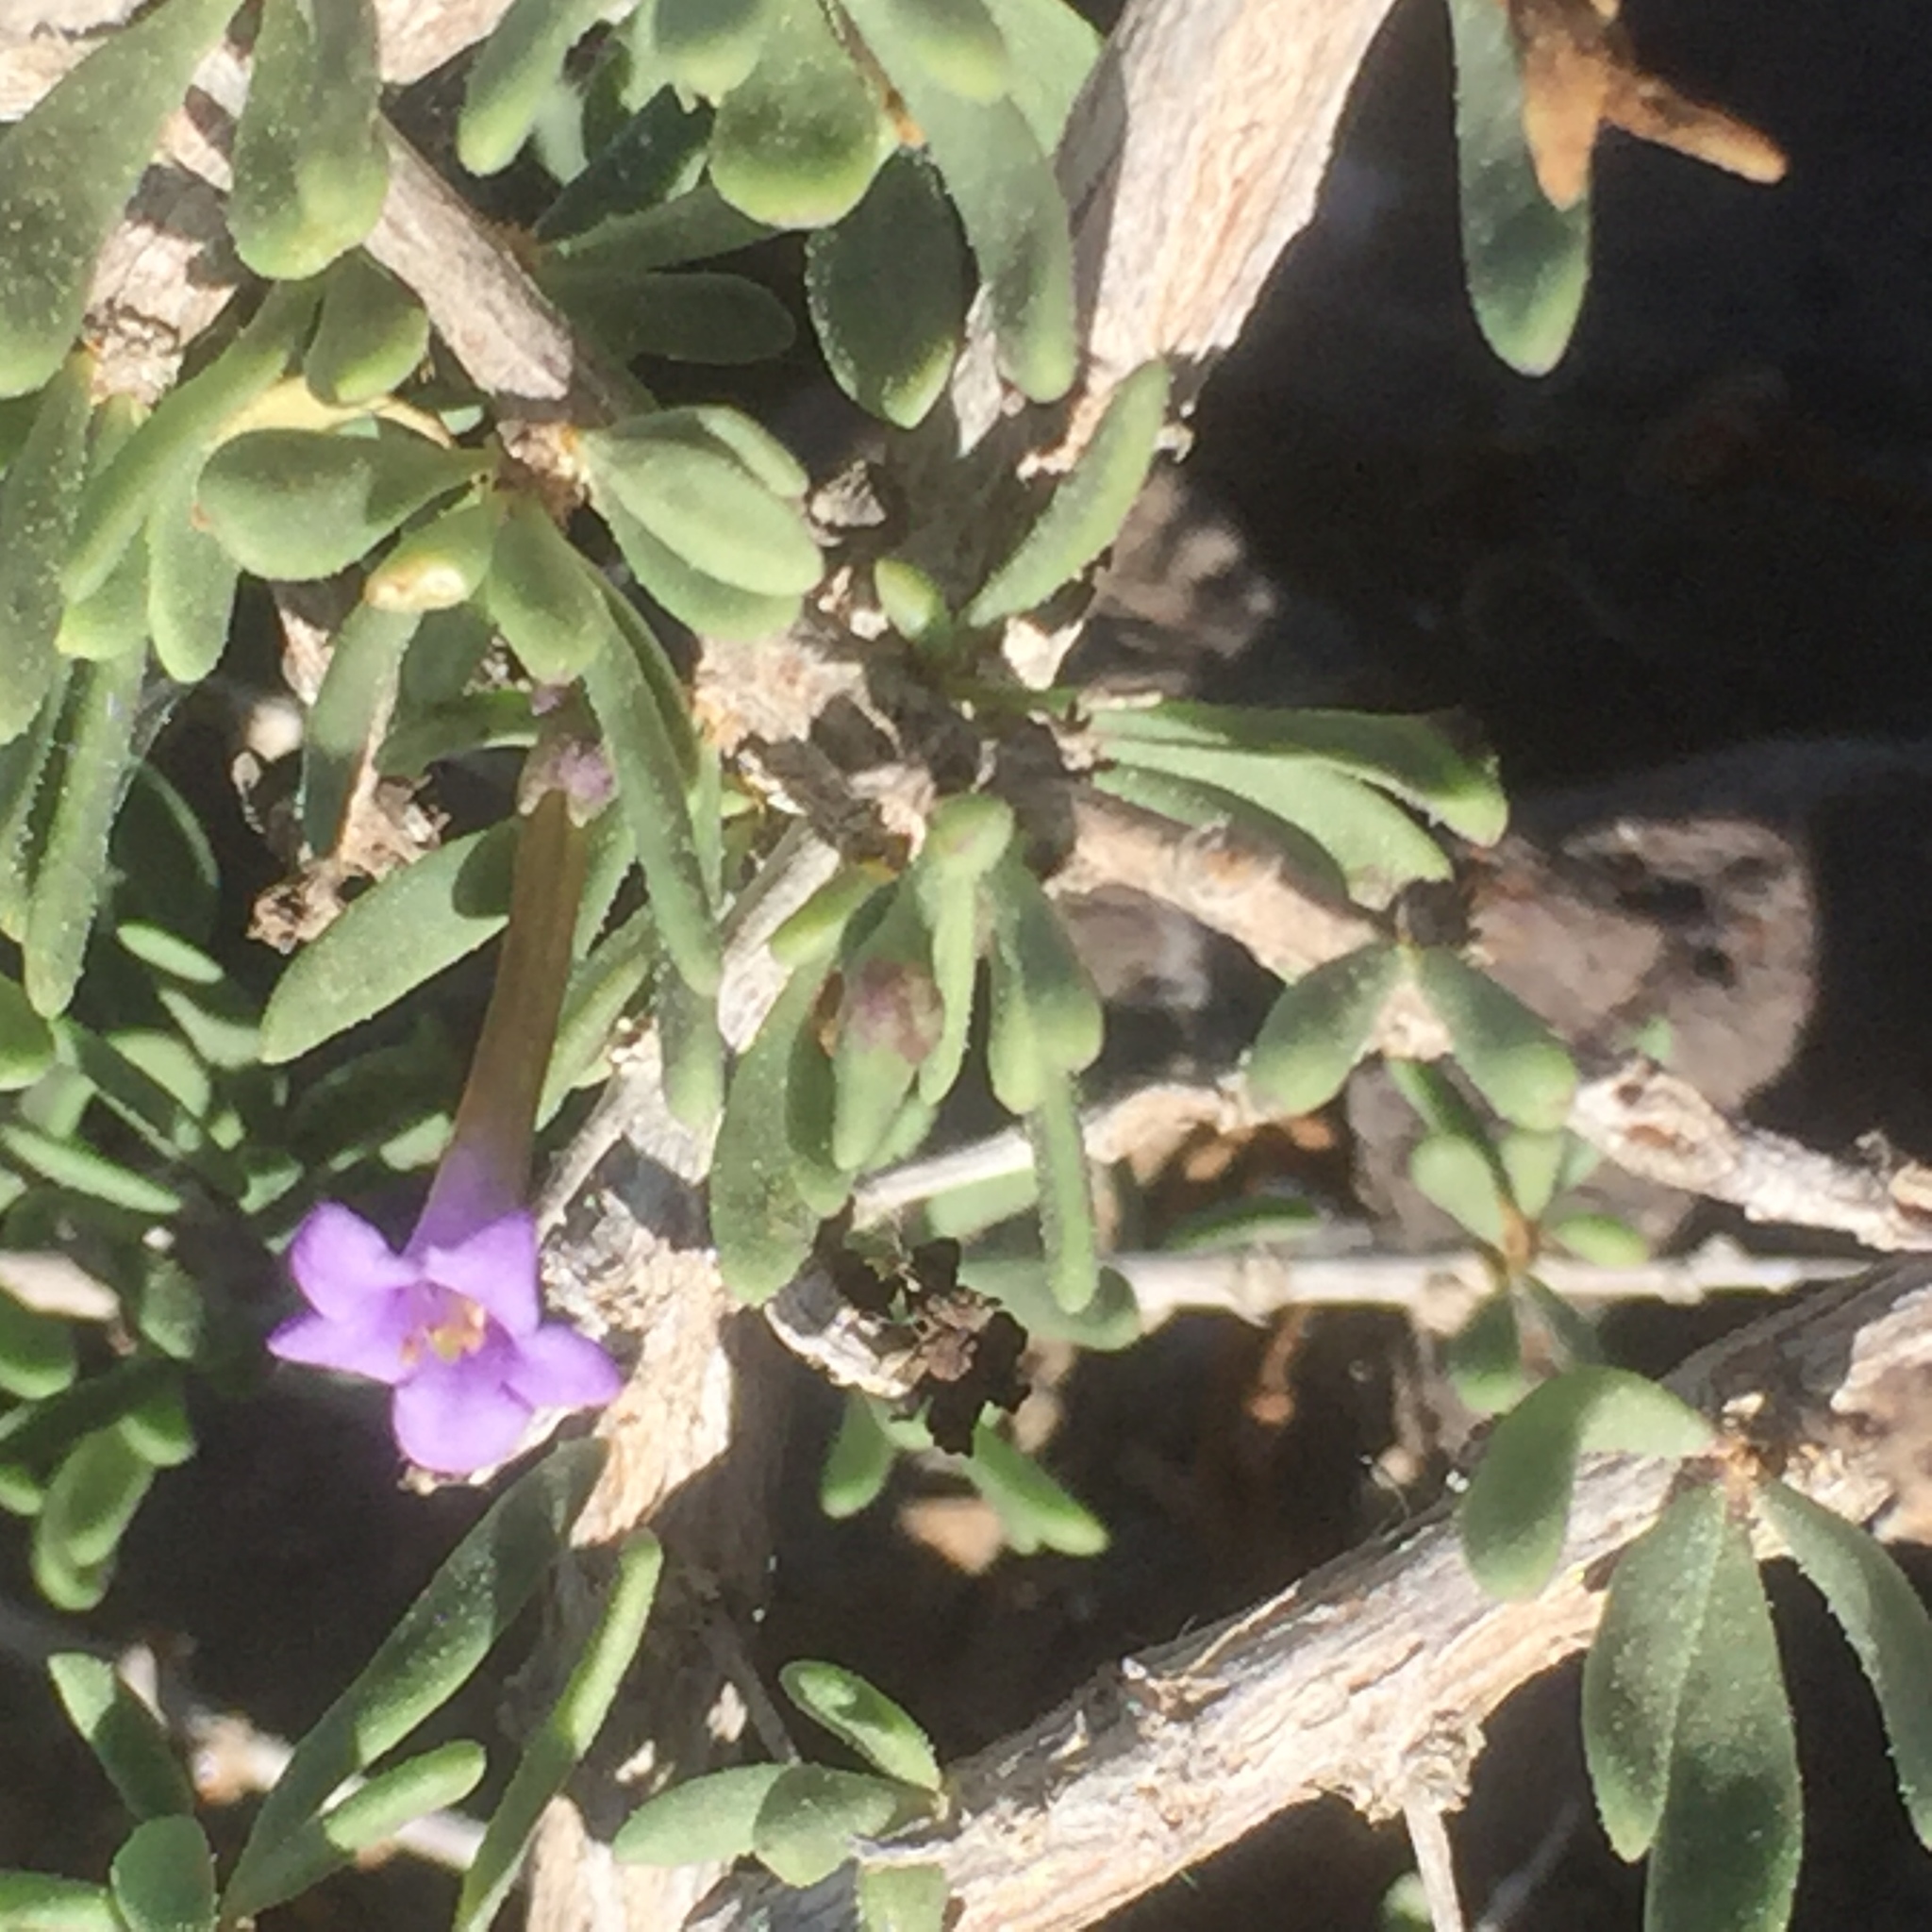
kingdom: Plantae
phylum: Tracheophyta
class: Magnoliopsida
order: Solanales
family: Solanaceae
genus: Lycium
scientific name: Lycium intricatum
